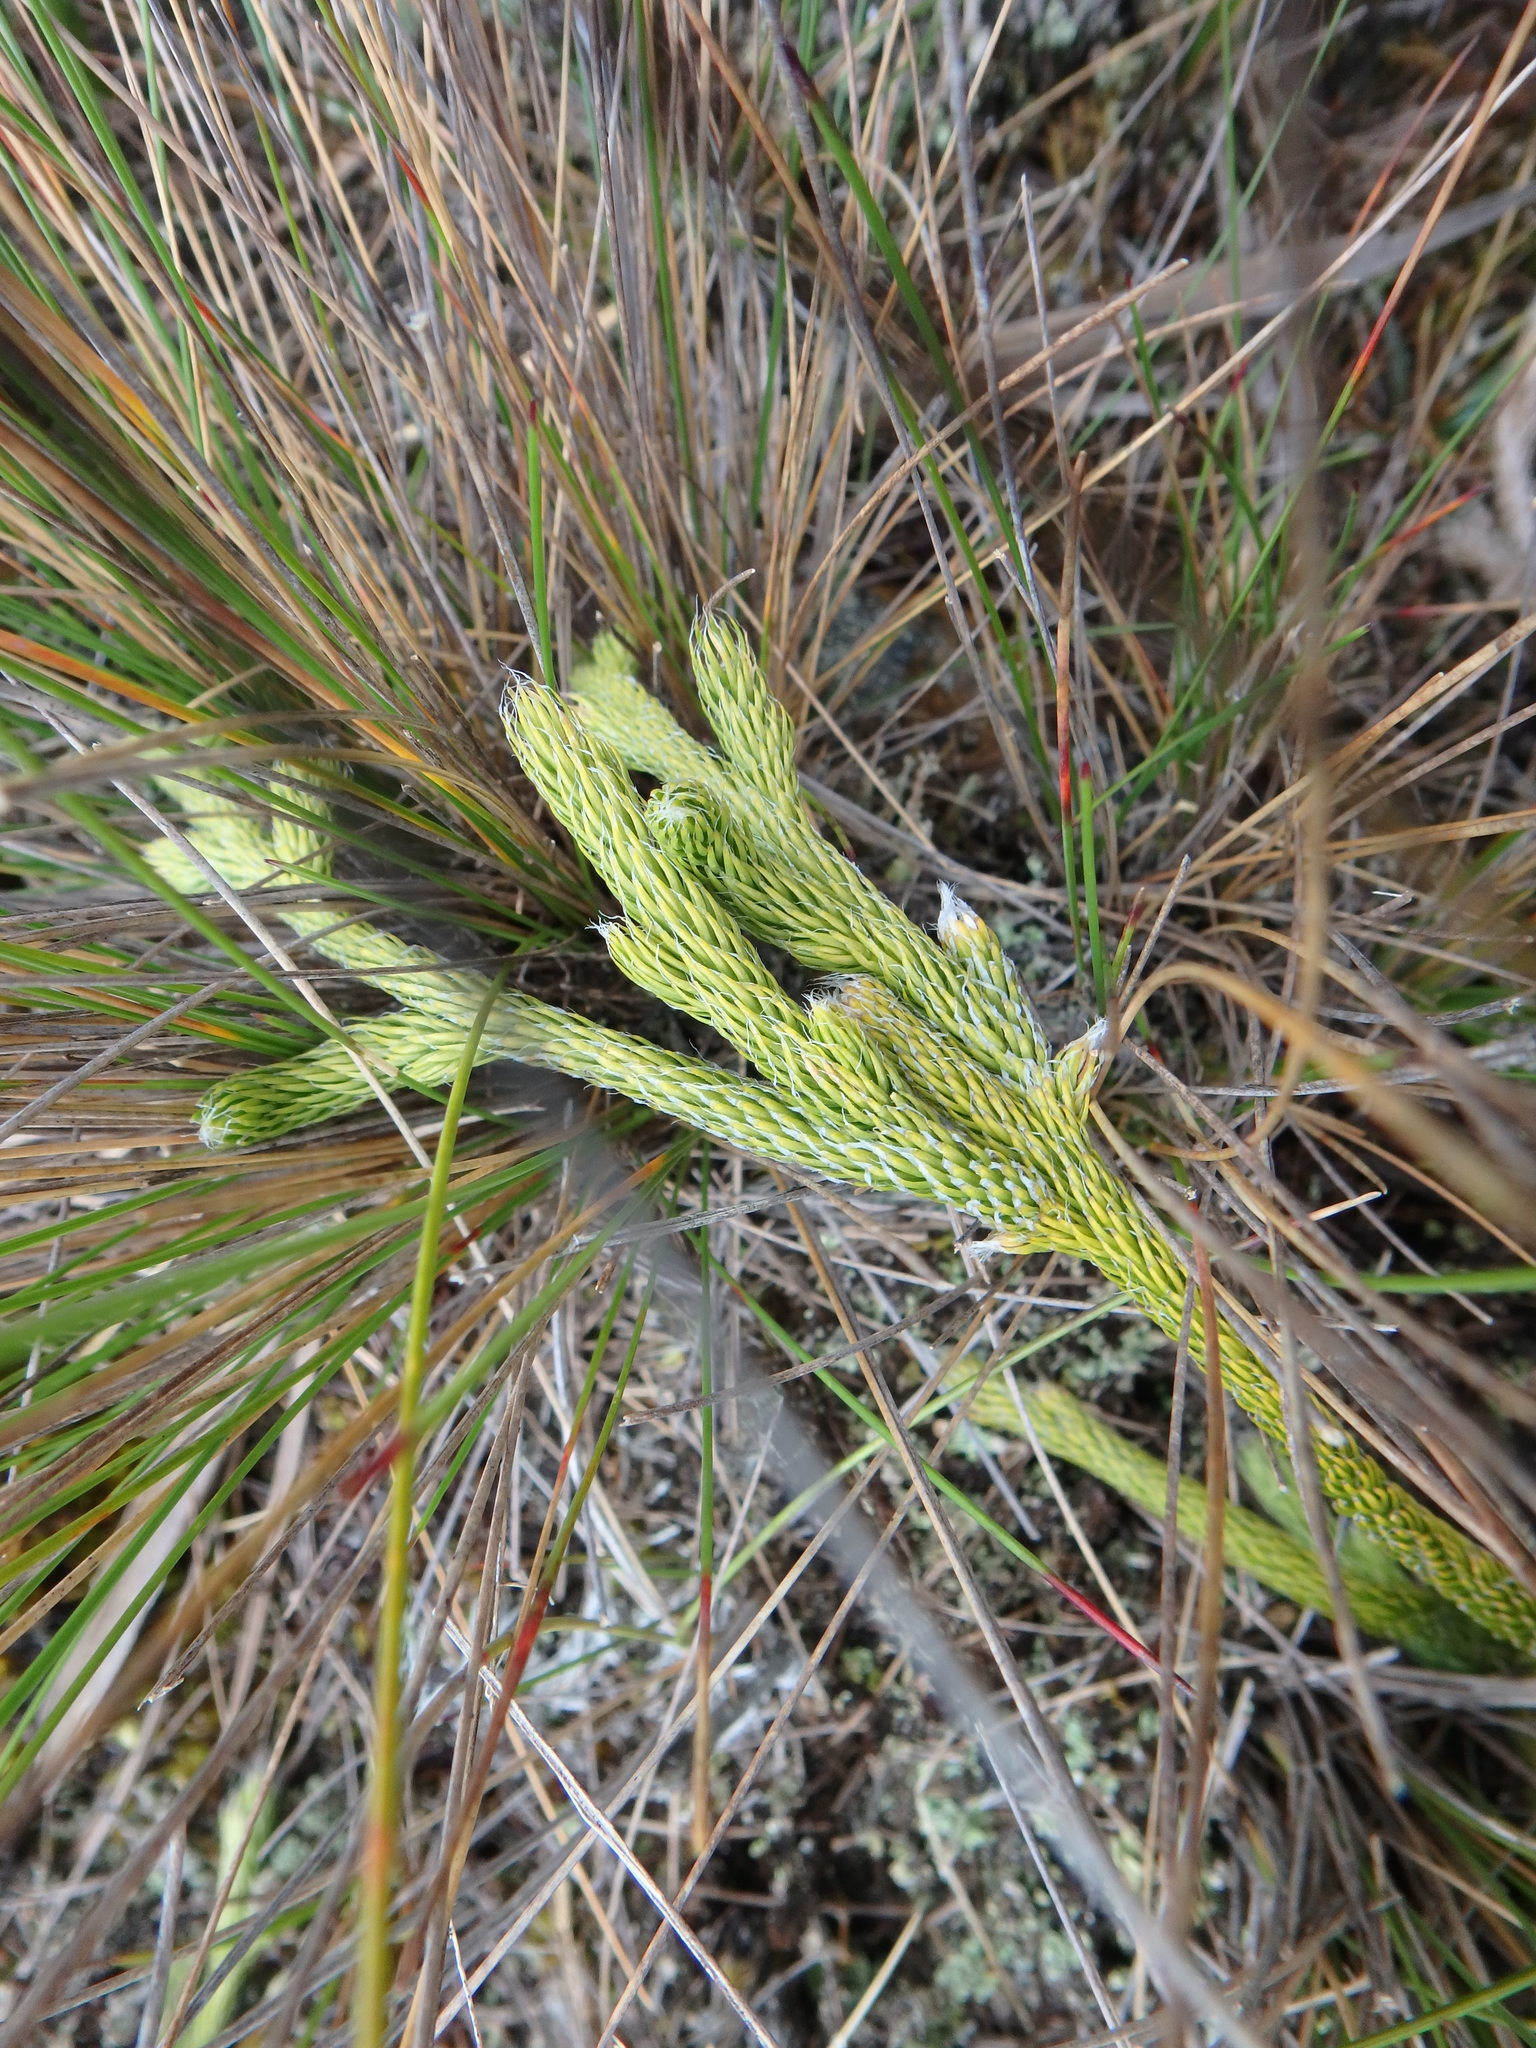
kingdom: Plantae
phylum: Tracheophyta
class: Lycopodiopsida
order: Lycopodiales
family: Lycopodiaceae
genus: Lycopodium
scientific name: Lycopodium clavatum
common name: Stag's-horn clubmoss
